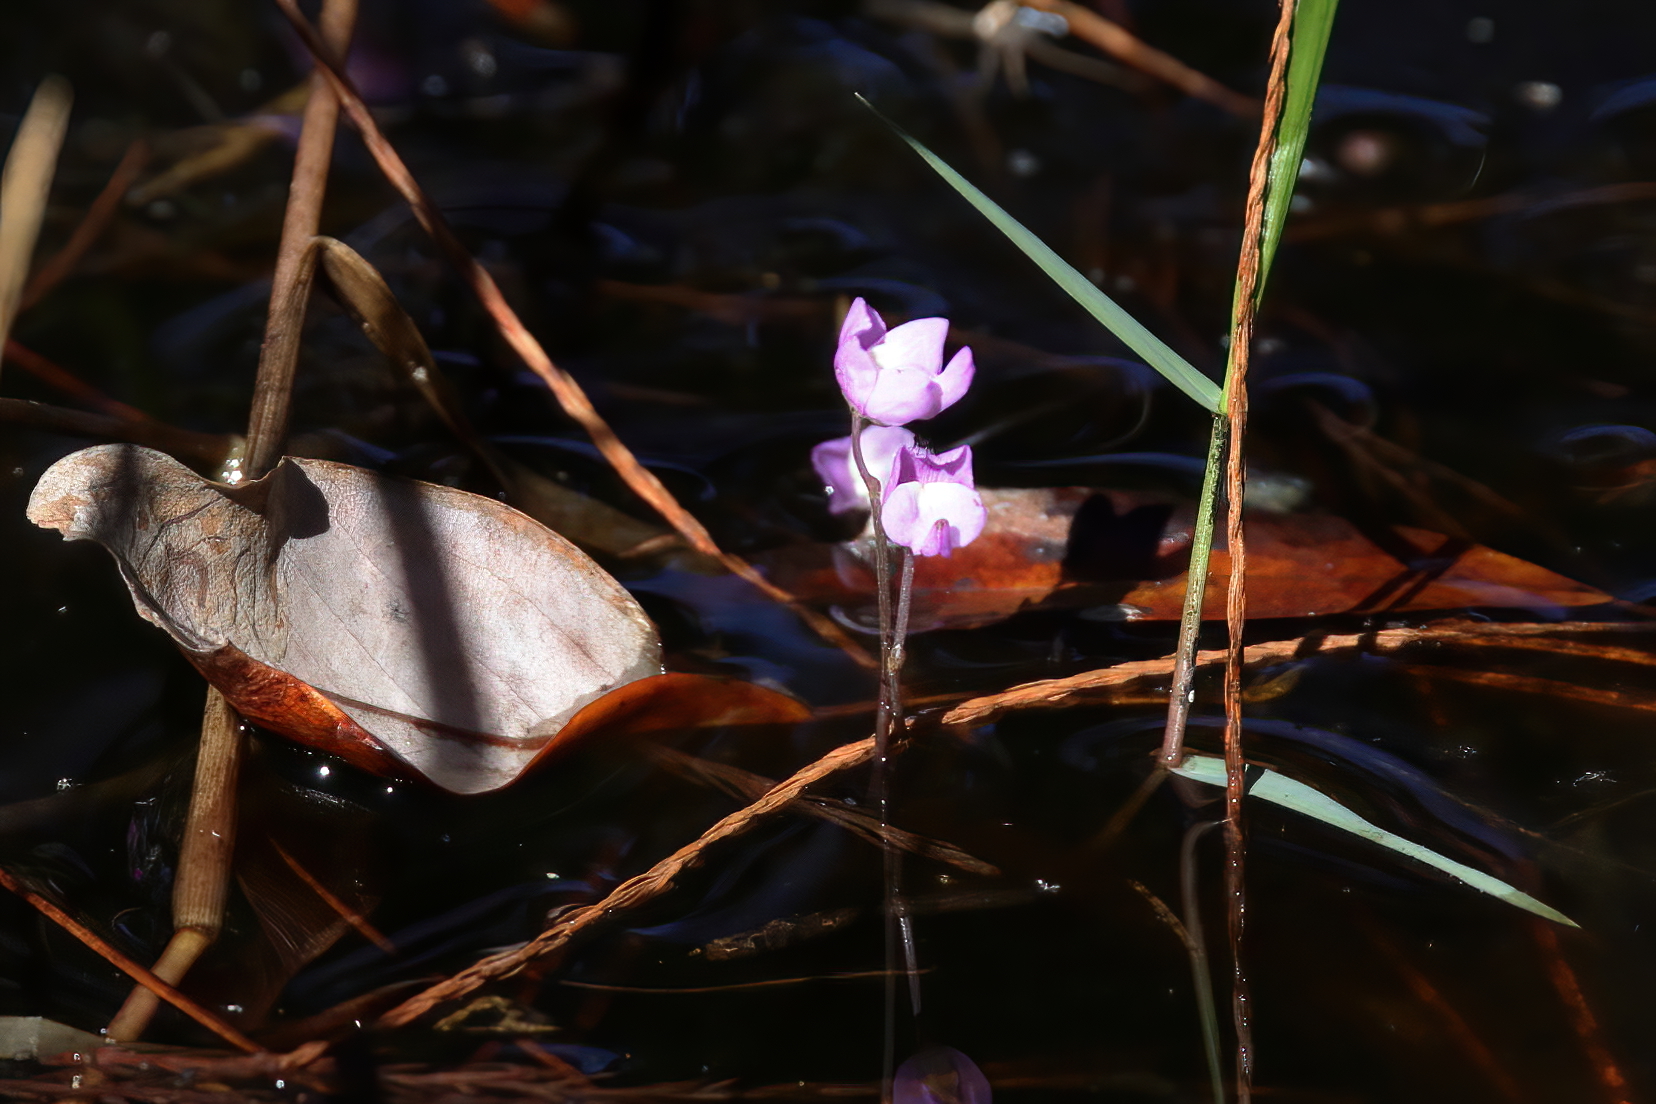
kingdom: Plantae
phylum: Tracheophyta
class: Magnoliopsida
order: Lamiales
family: Lentibulariaceae
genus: Utricularia
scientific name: Utricularia purpurea
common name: Eastern purple bladderwort
